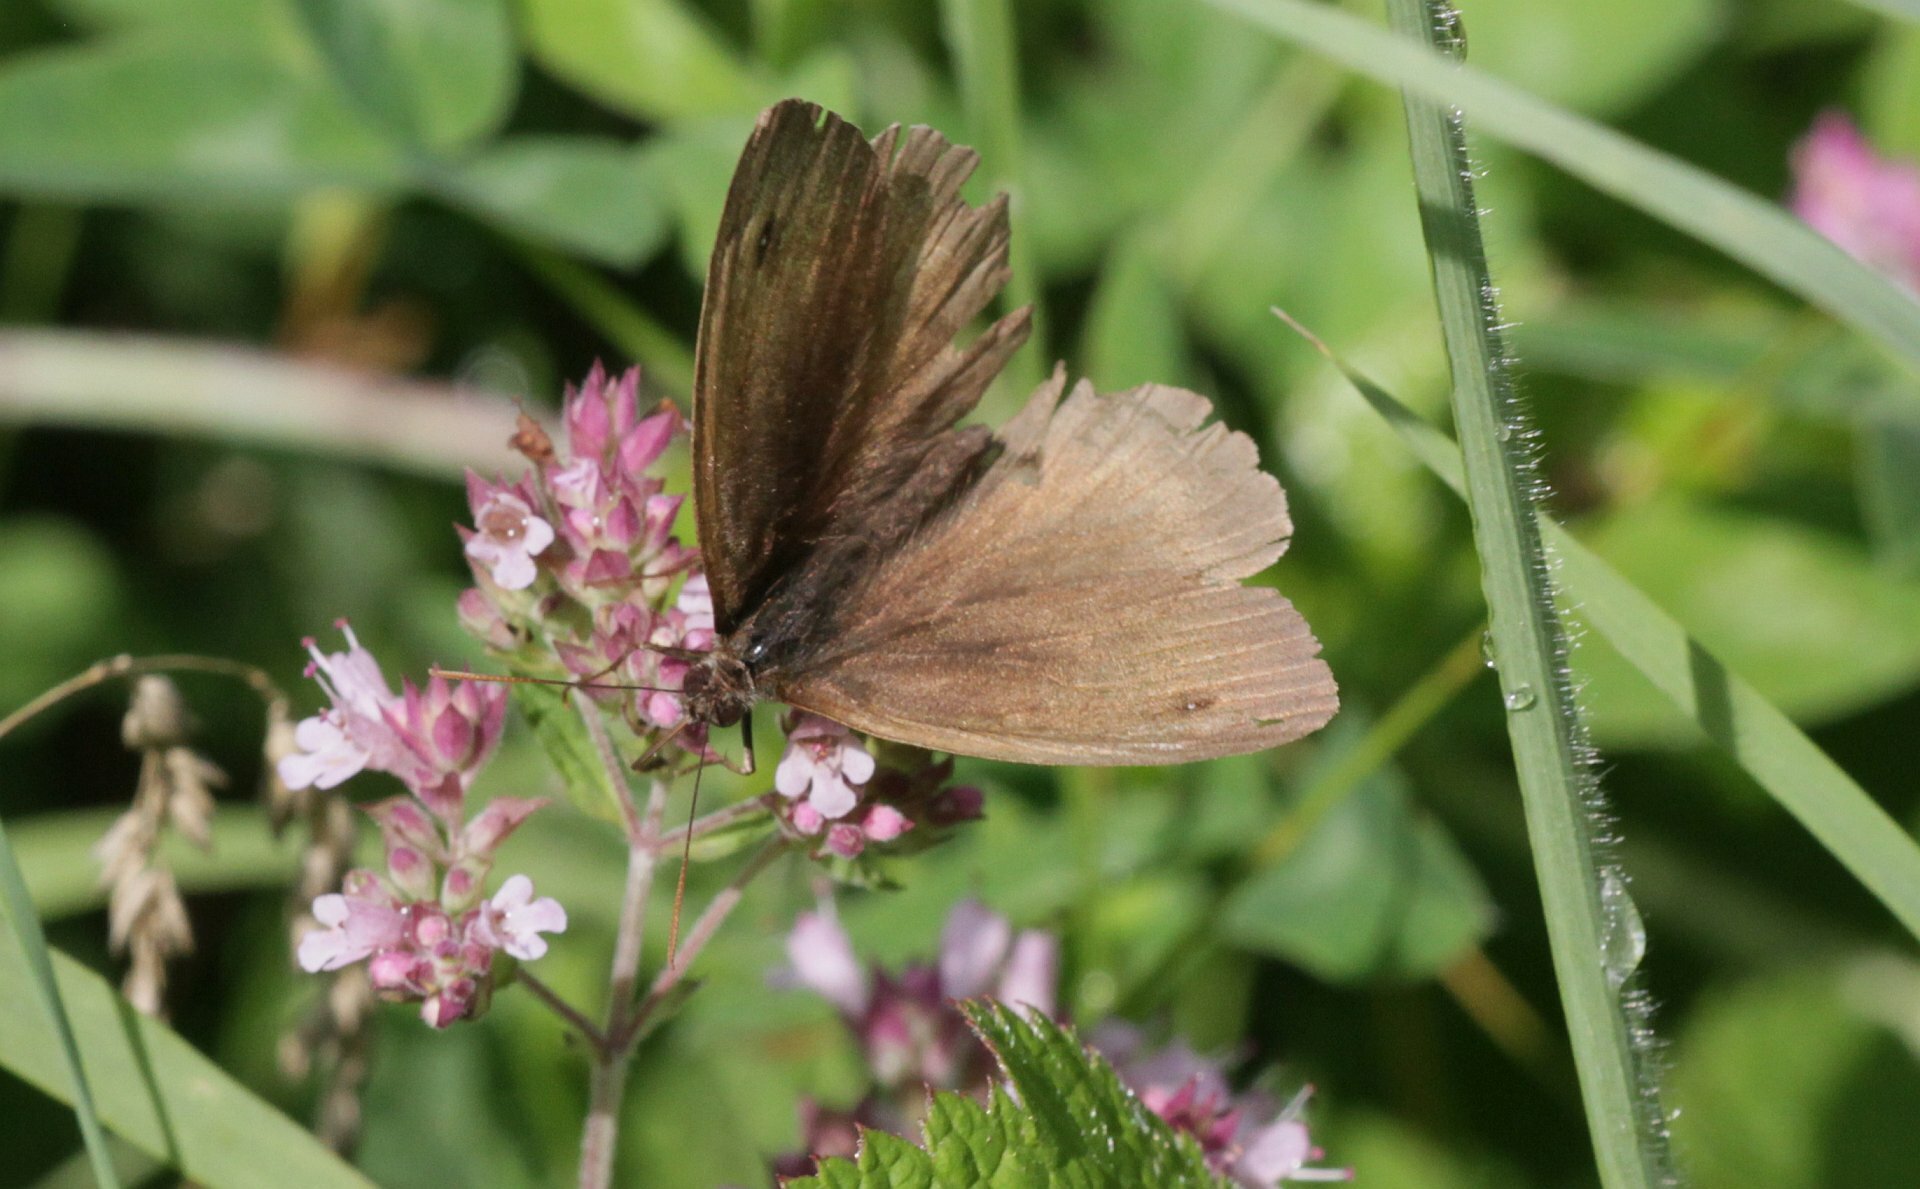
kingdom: Animalia
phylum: Arthropoda
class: Insecta
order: Lepidoptera
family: Nymphalidae
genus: Maniola
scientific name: Maniola jurtina
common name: Meadow brown
